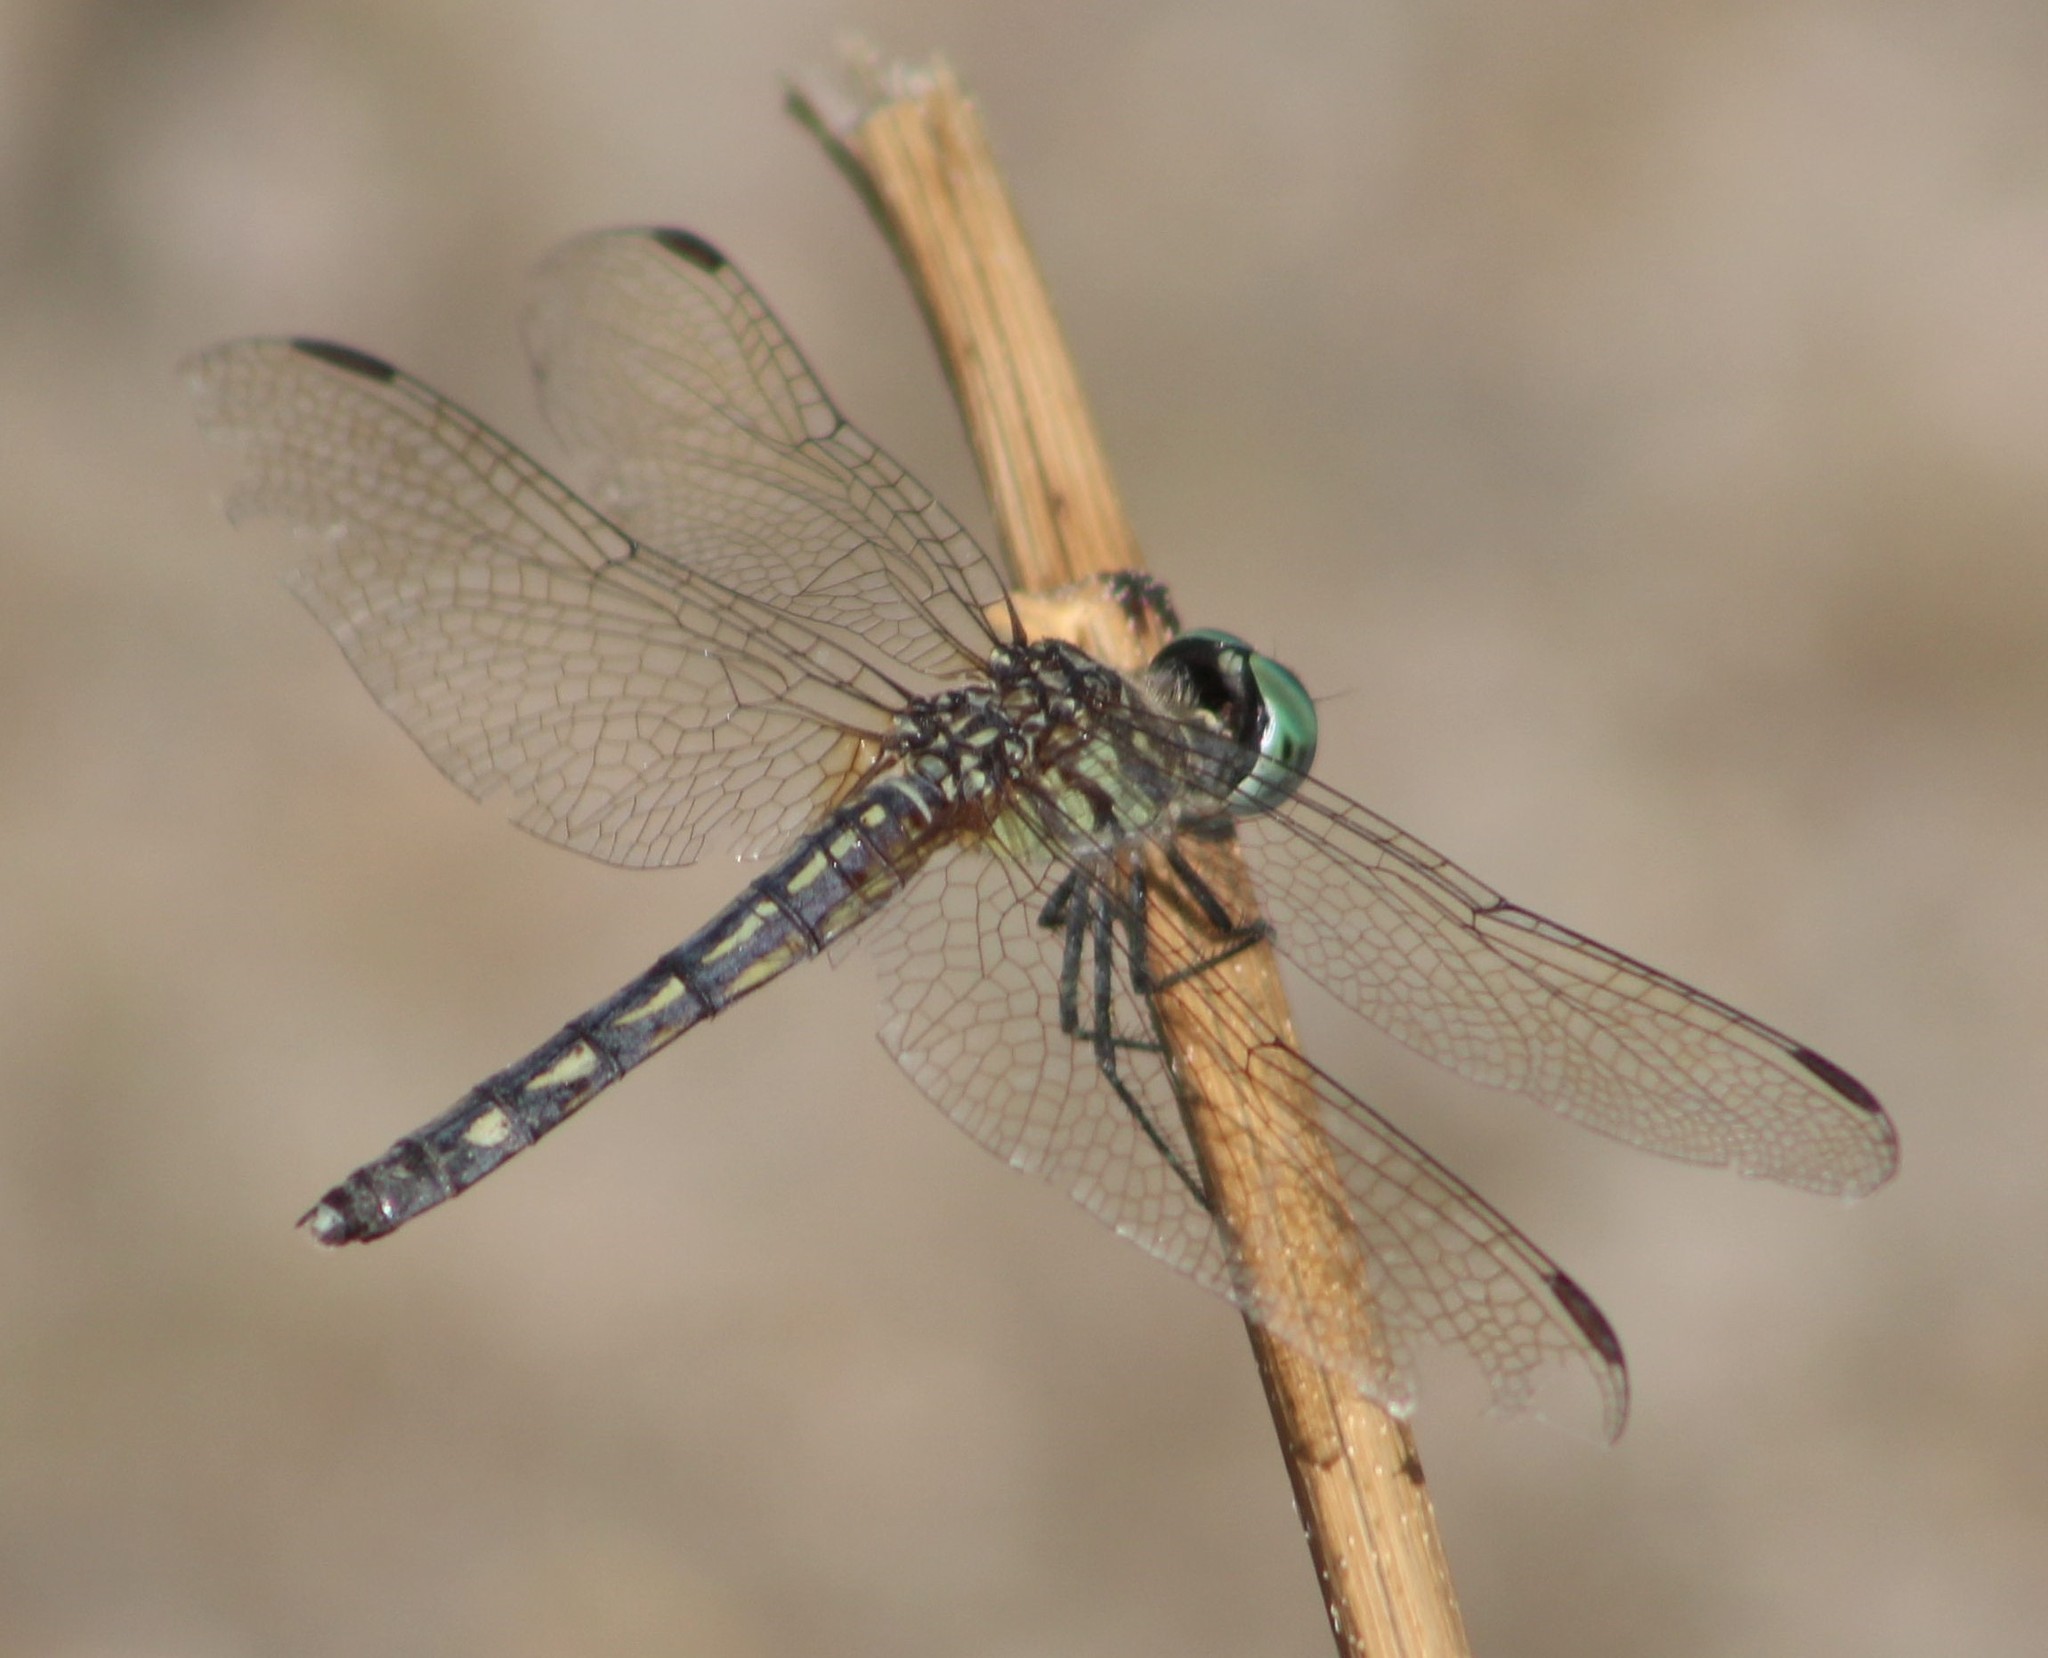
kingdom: Animalia
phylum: Arthropoda
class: Insecta
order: Odonata
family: Libellulidae
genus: Pachydiplax
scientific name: Pachydiplax longipennis
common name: Blue dasher
